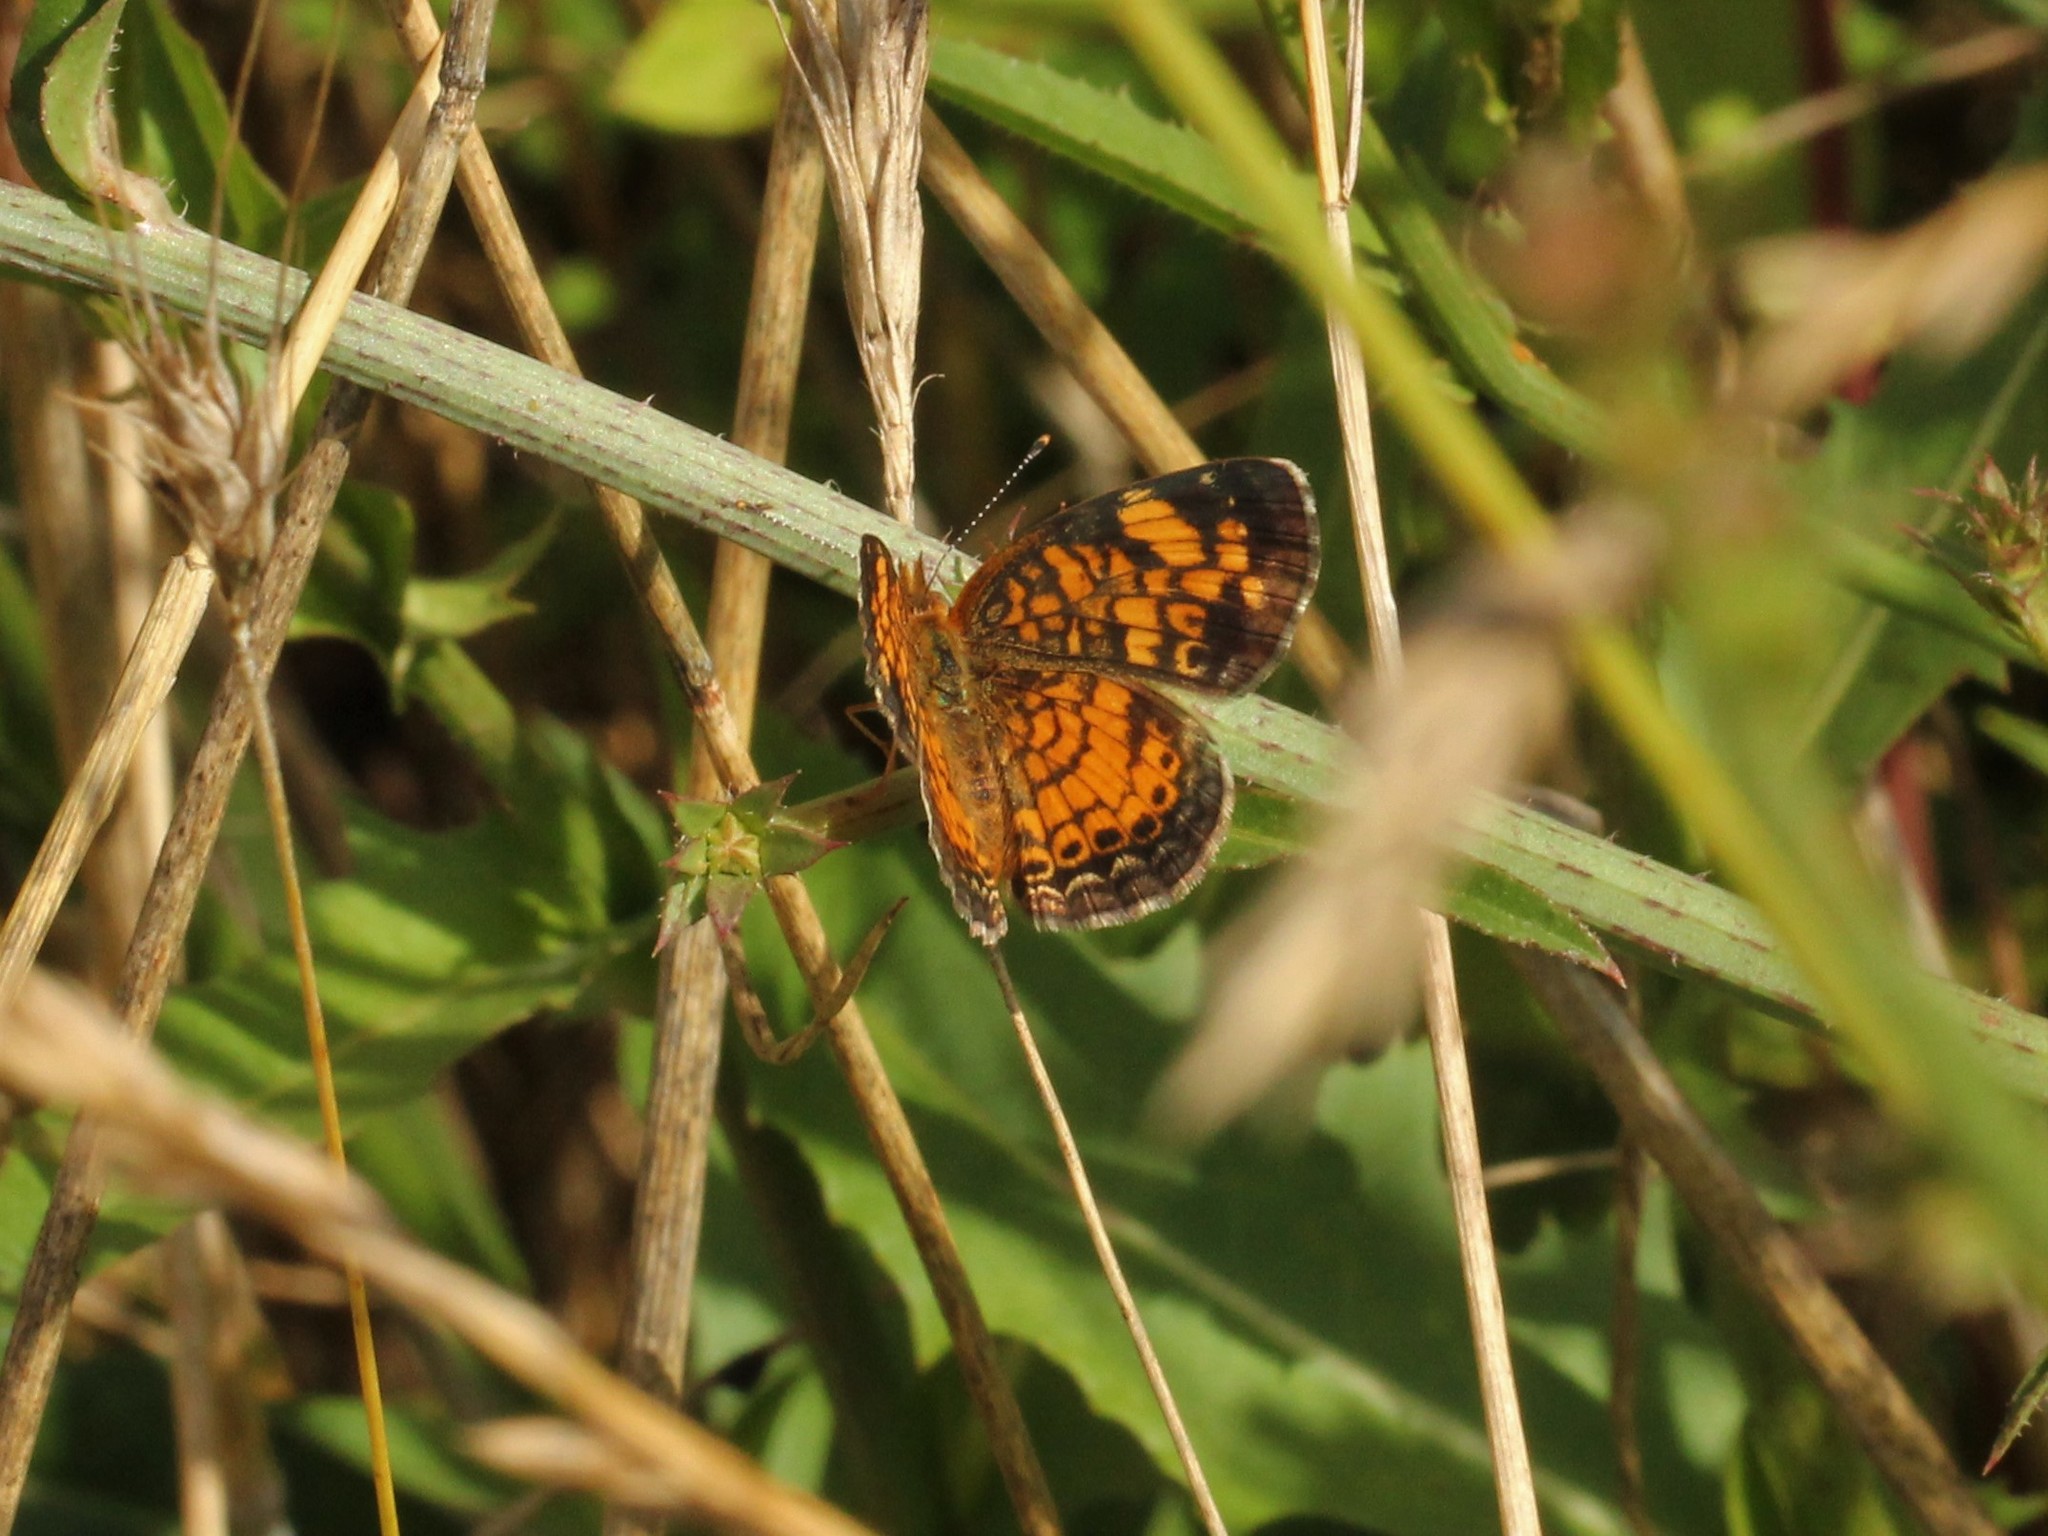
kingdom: Animalia
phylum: Arthropoda
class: Insecta
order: Lepidoptera
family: Nymphalidae
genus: Phyciodes
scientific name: Phyciodes tharos
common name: Pearl crescent
